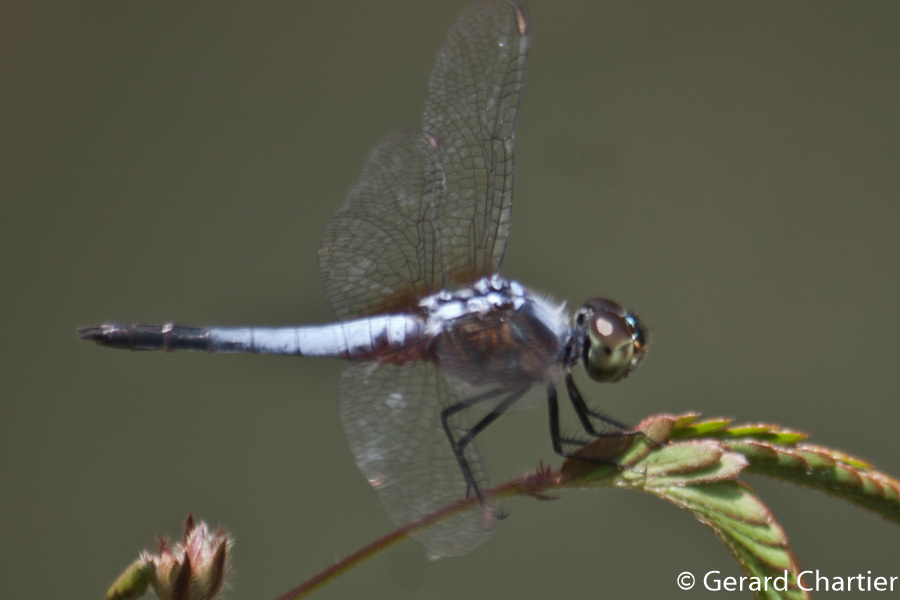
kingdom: Animalia
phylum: Arthropoda
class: Insecta
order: Odonata
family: Libellulidae
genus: Brachydiplax
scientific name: Brachydiplax chalybea
